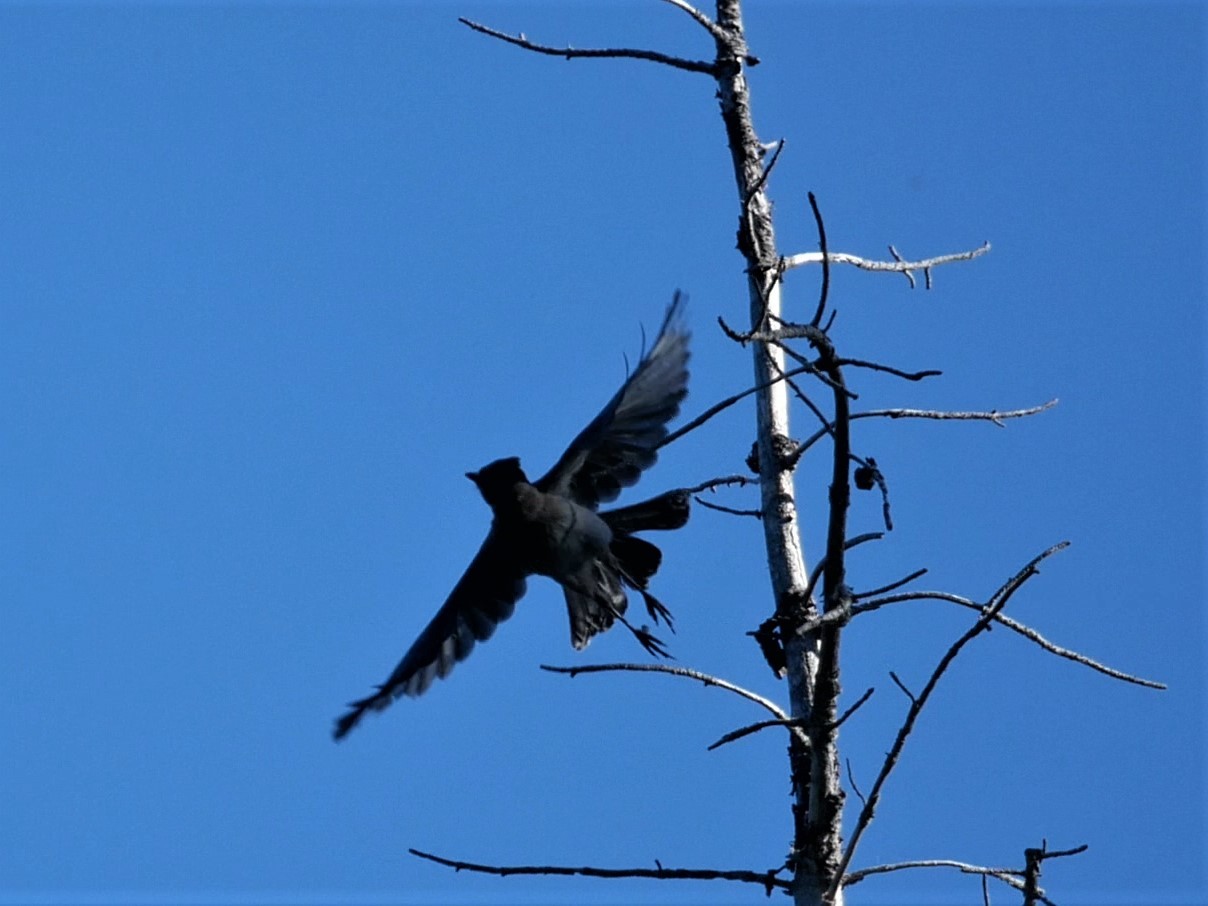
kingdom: Animalia
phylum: Chordata
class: Aves
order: Passeriformes
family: Corvidae
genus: Cyanocitta
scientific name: Cyanocitta stelleri
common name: Steller's jay
